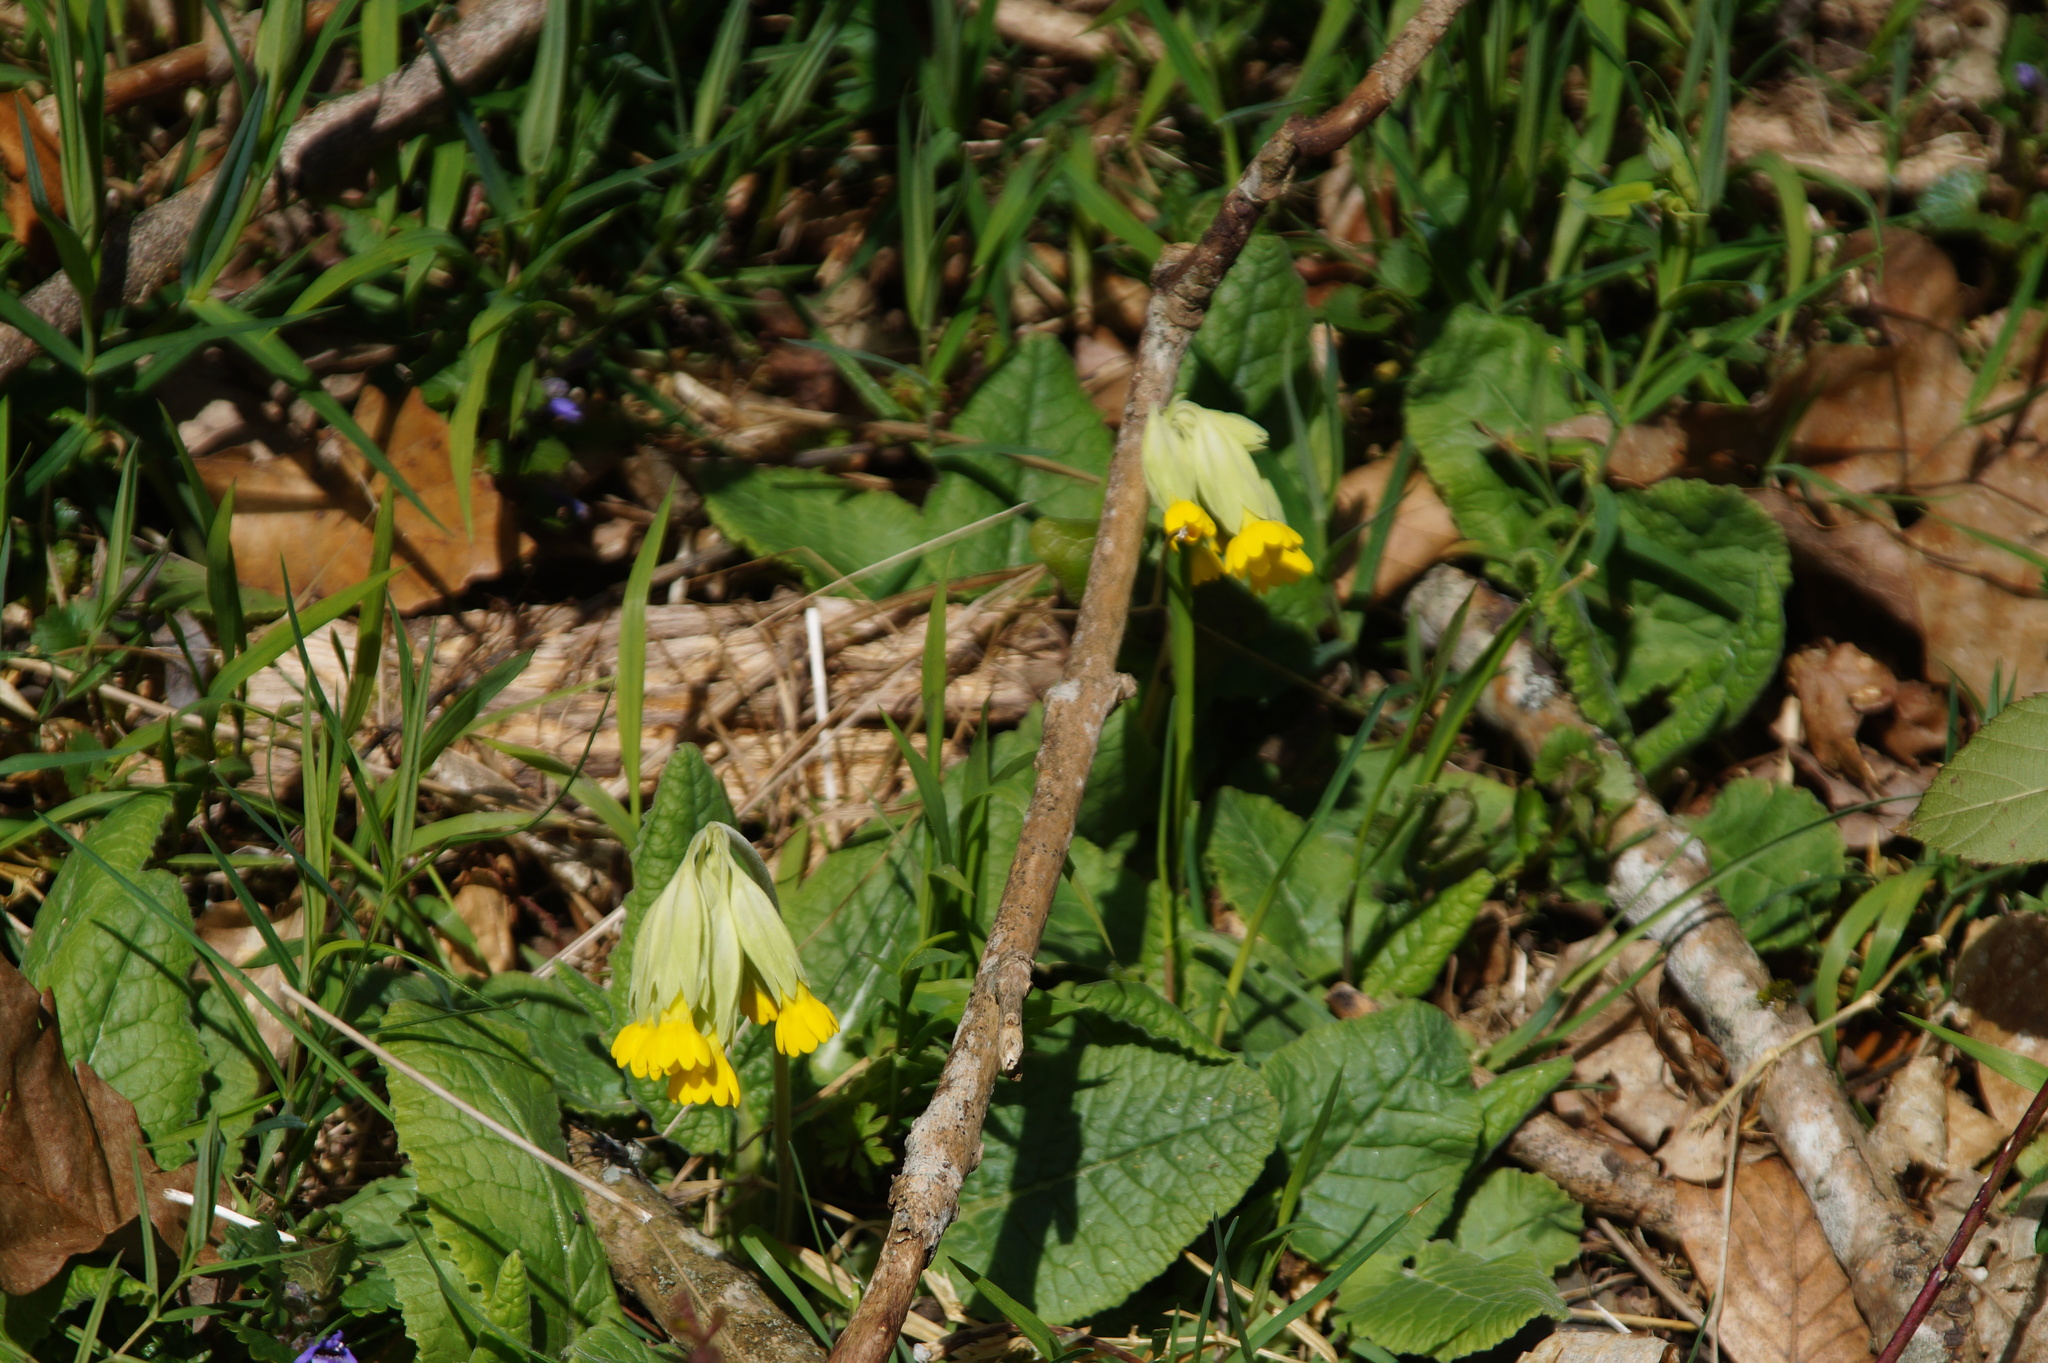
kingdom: Plantae
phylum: Tracheophyta
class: Magnoliopsida
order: Ericales
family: Primulaceae
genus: Primula
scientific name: Primula veris
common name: Cowslip
